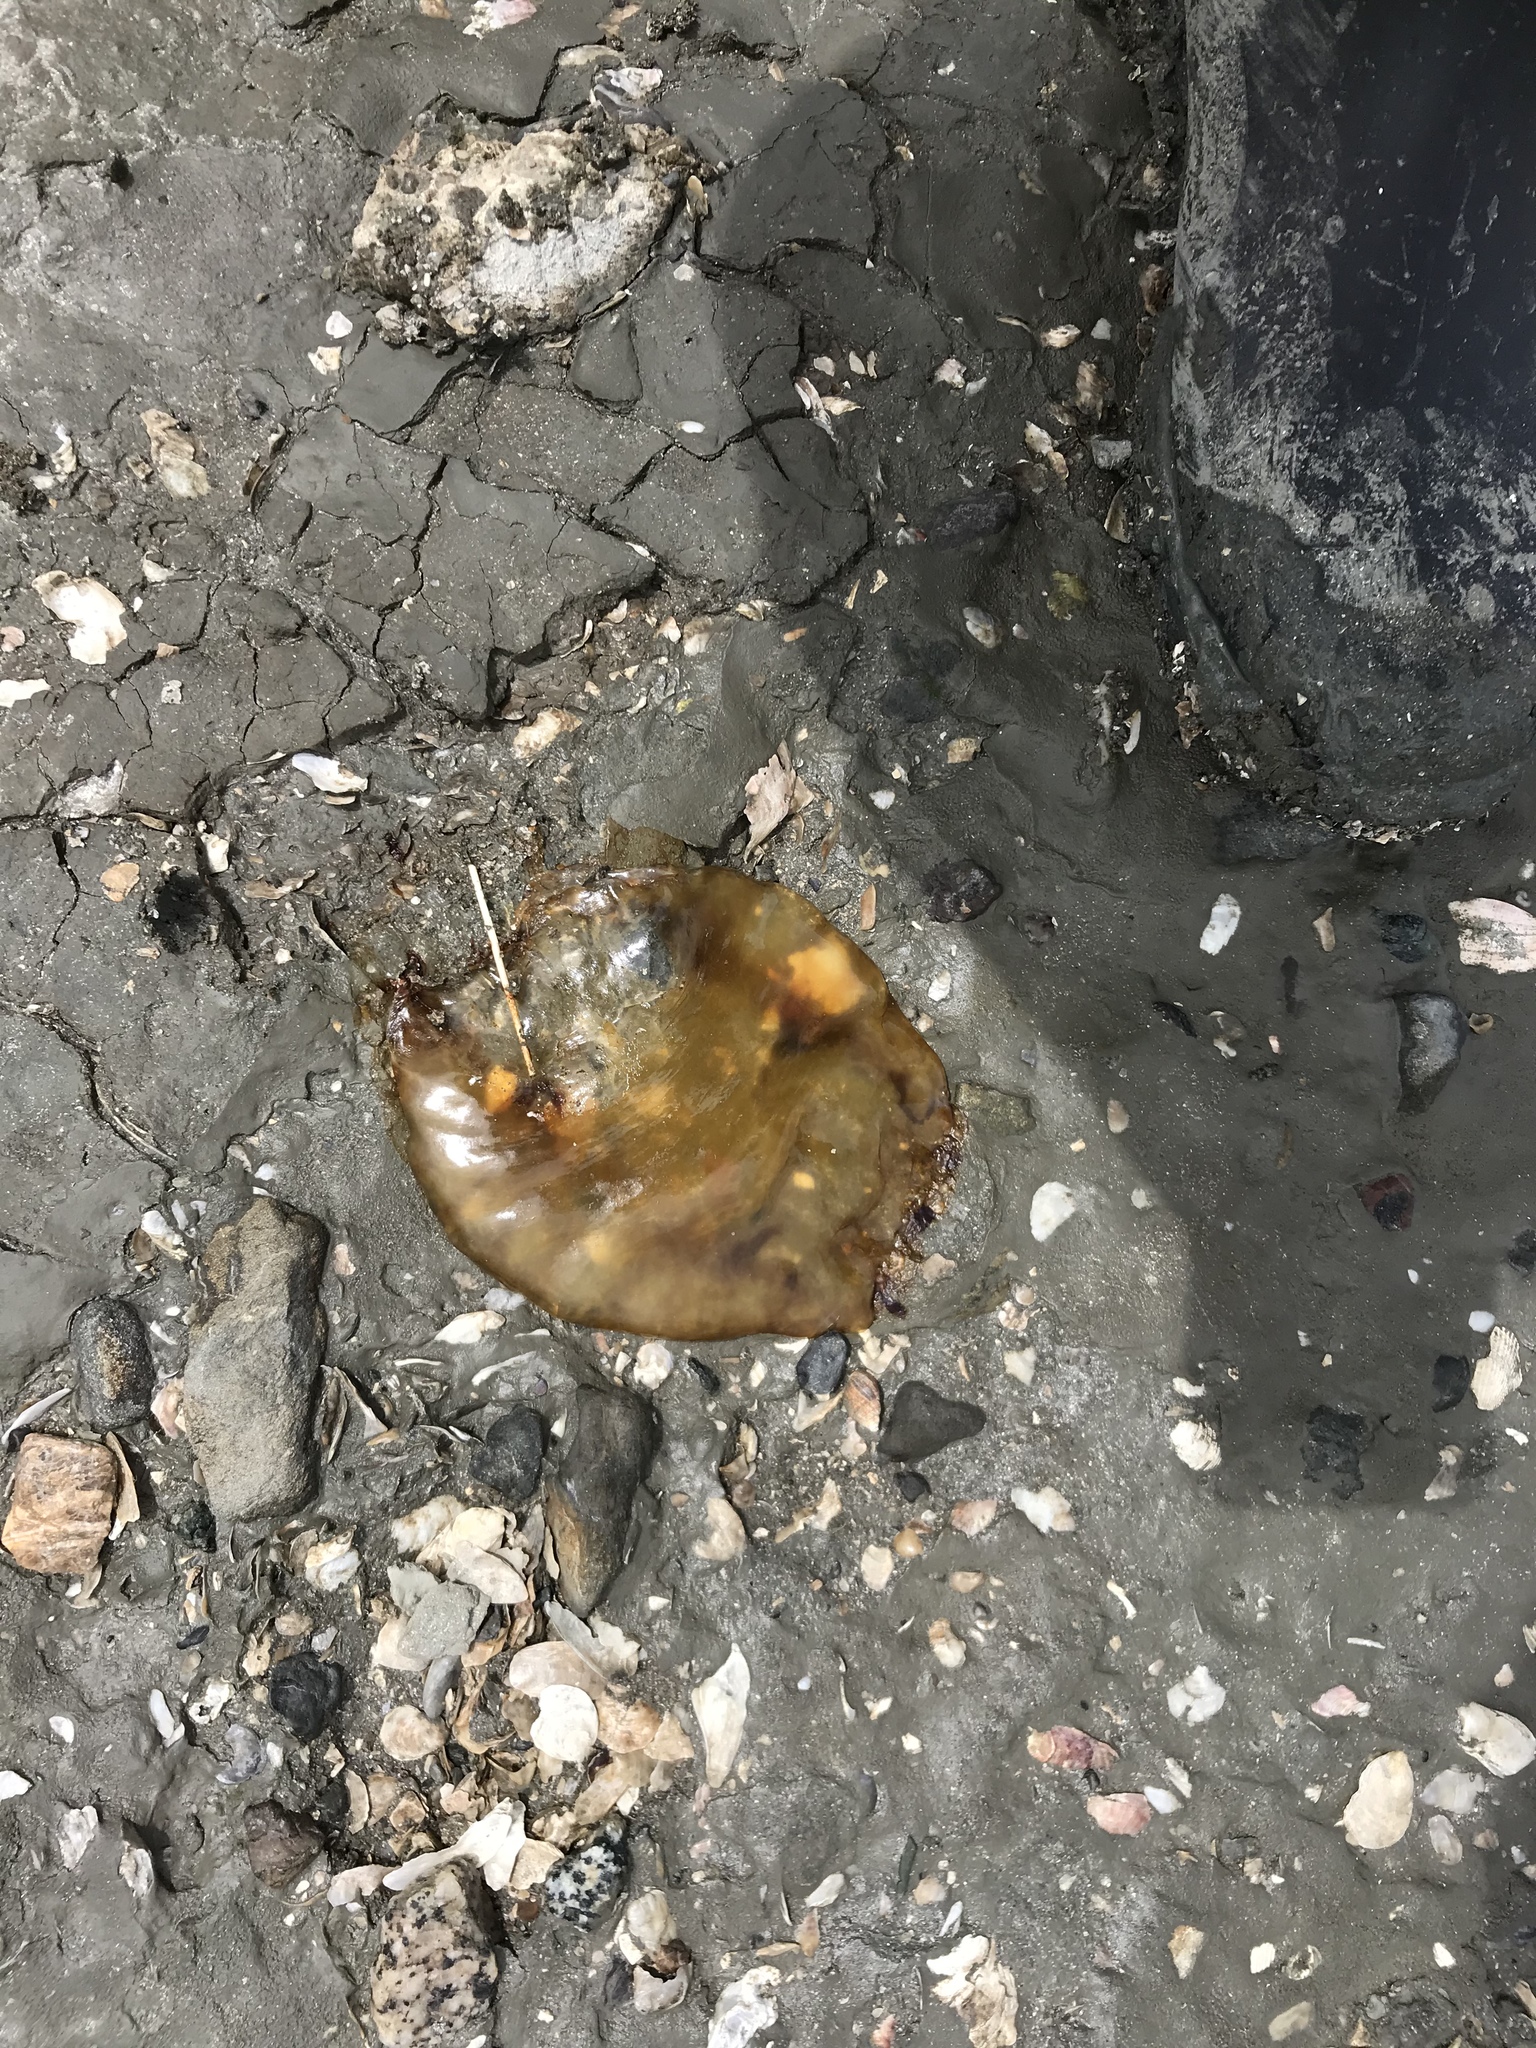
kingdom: Animalia
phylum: Cnidaria
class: Scyphozoa
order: Semaeostomeae
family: Pelagiidae
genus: Chrysaora
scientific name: Chrysaora fuscescens
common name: Sea nettle
